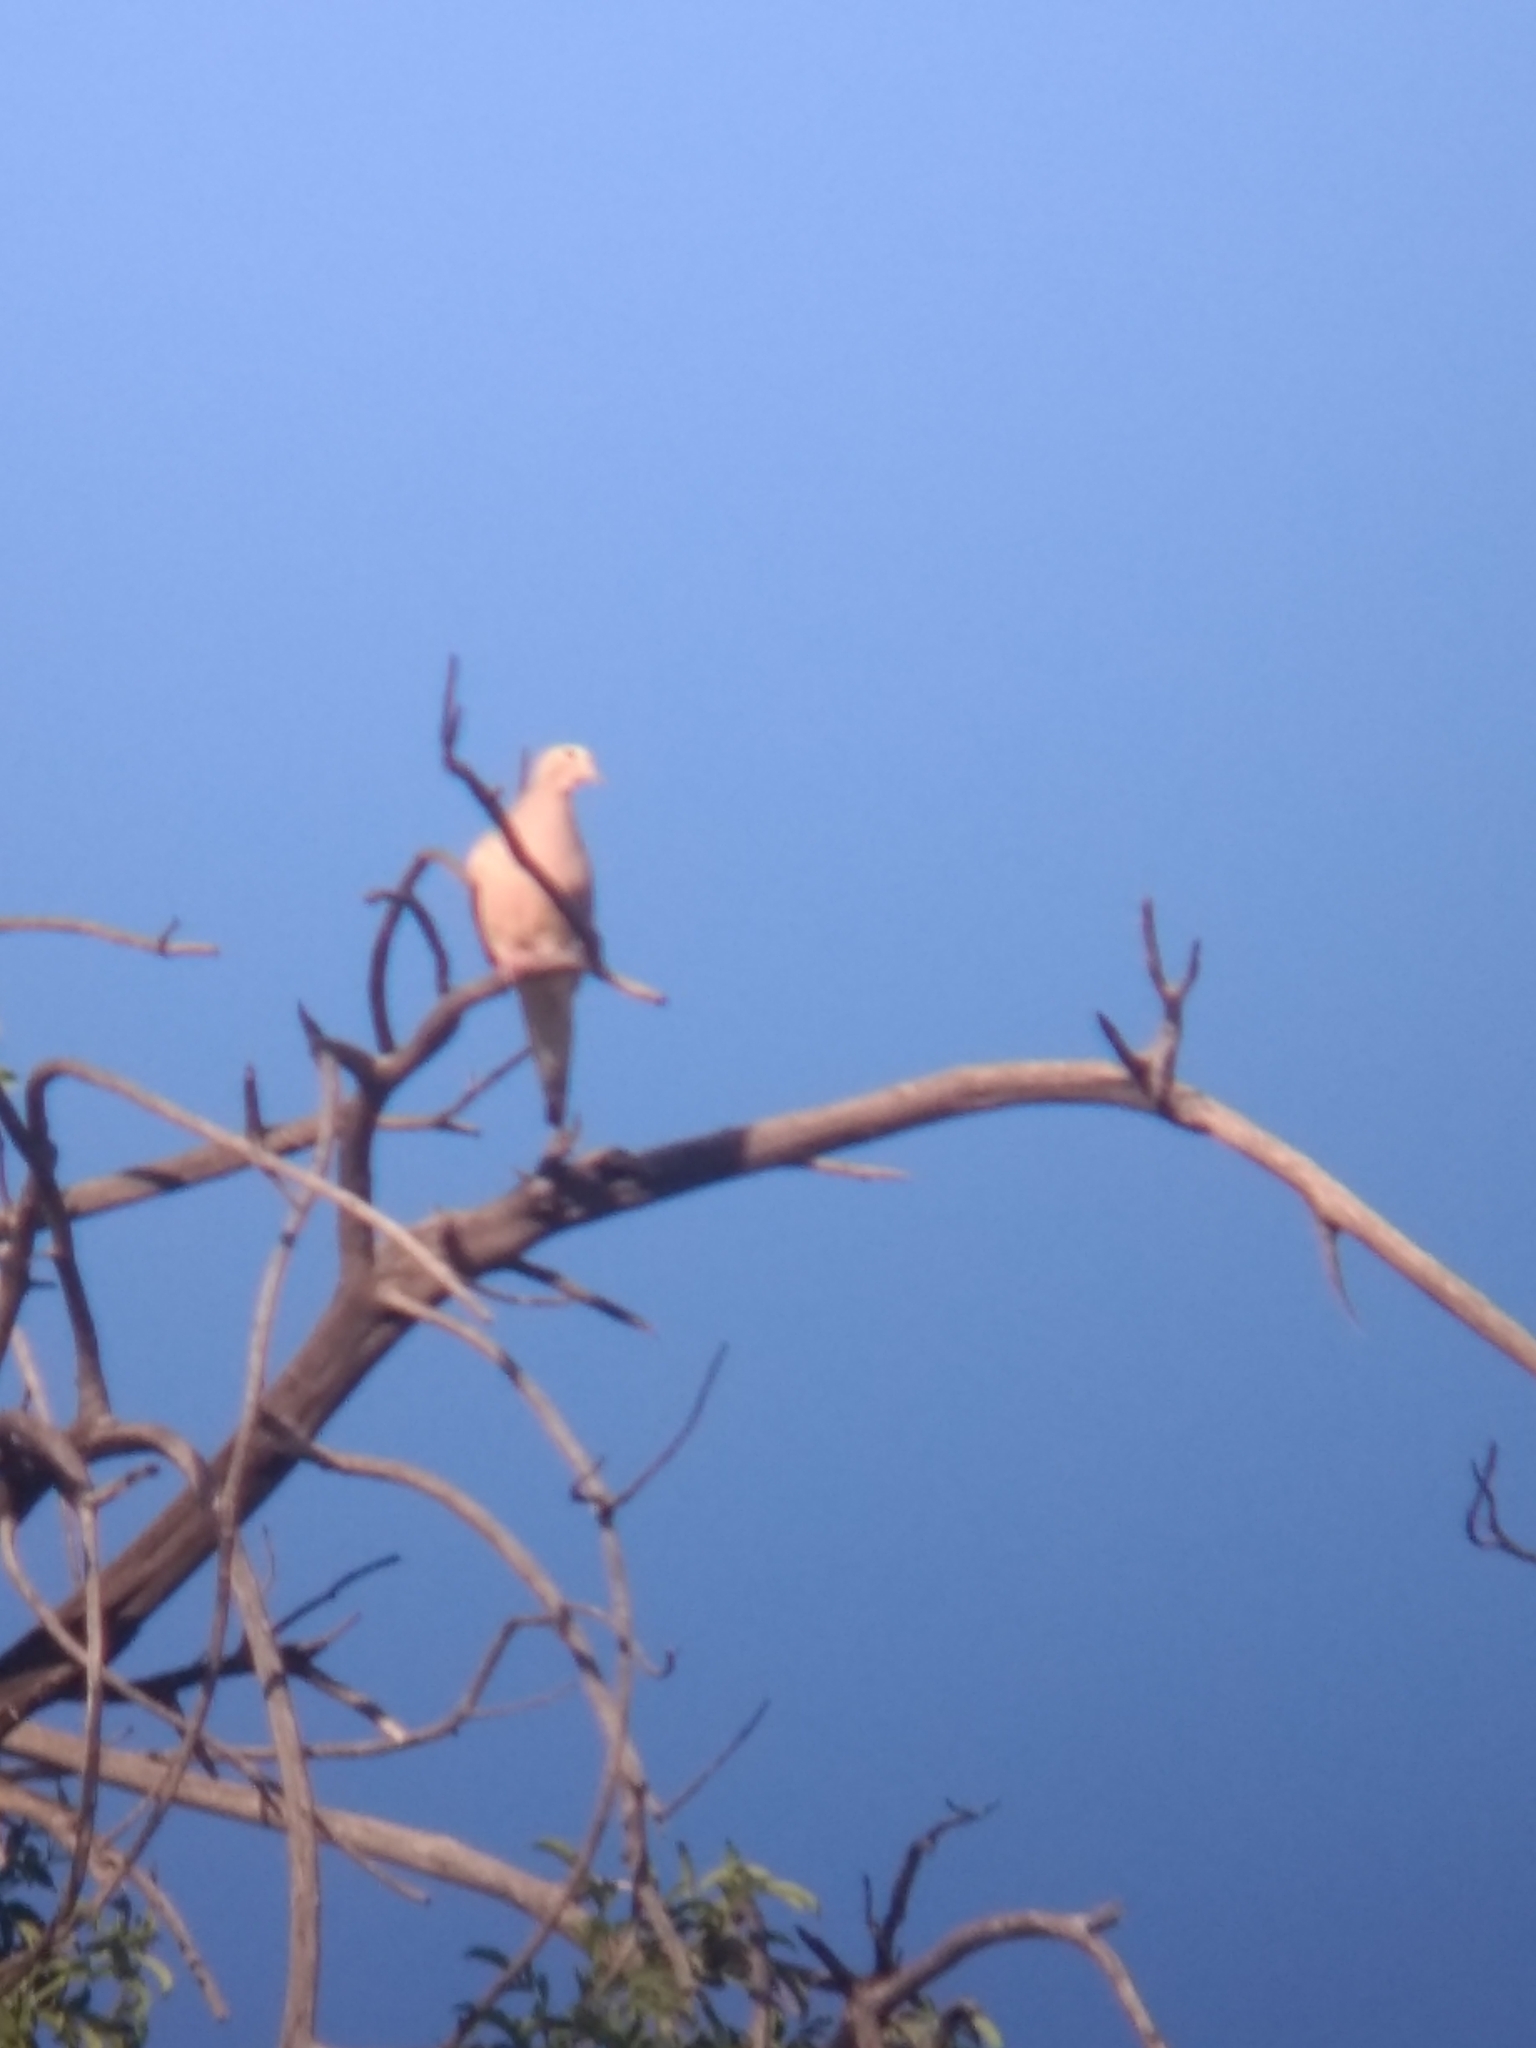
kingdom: Animalia
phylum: Chordata
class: Aves
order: Columbiformes
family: Columbidae
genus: Zenaida
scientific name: Zenaida macroura
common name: Mourning dove
